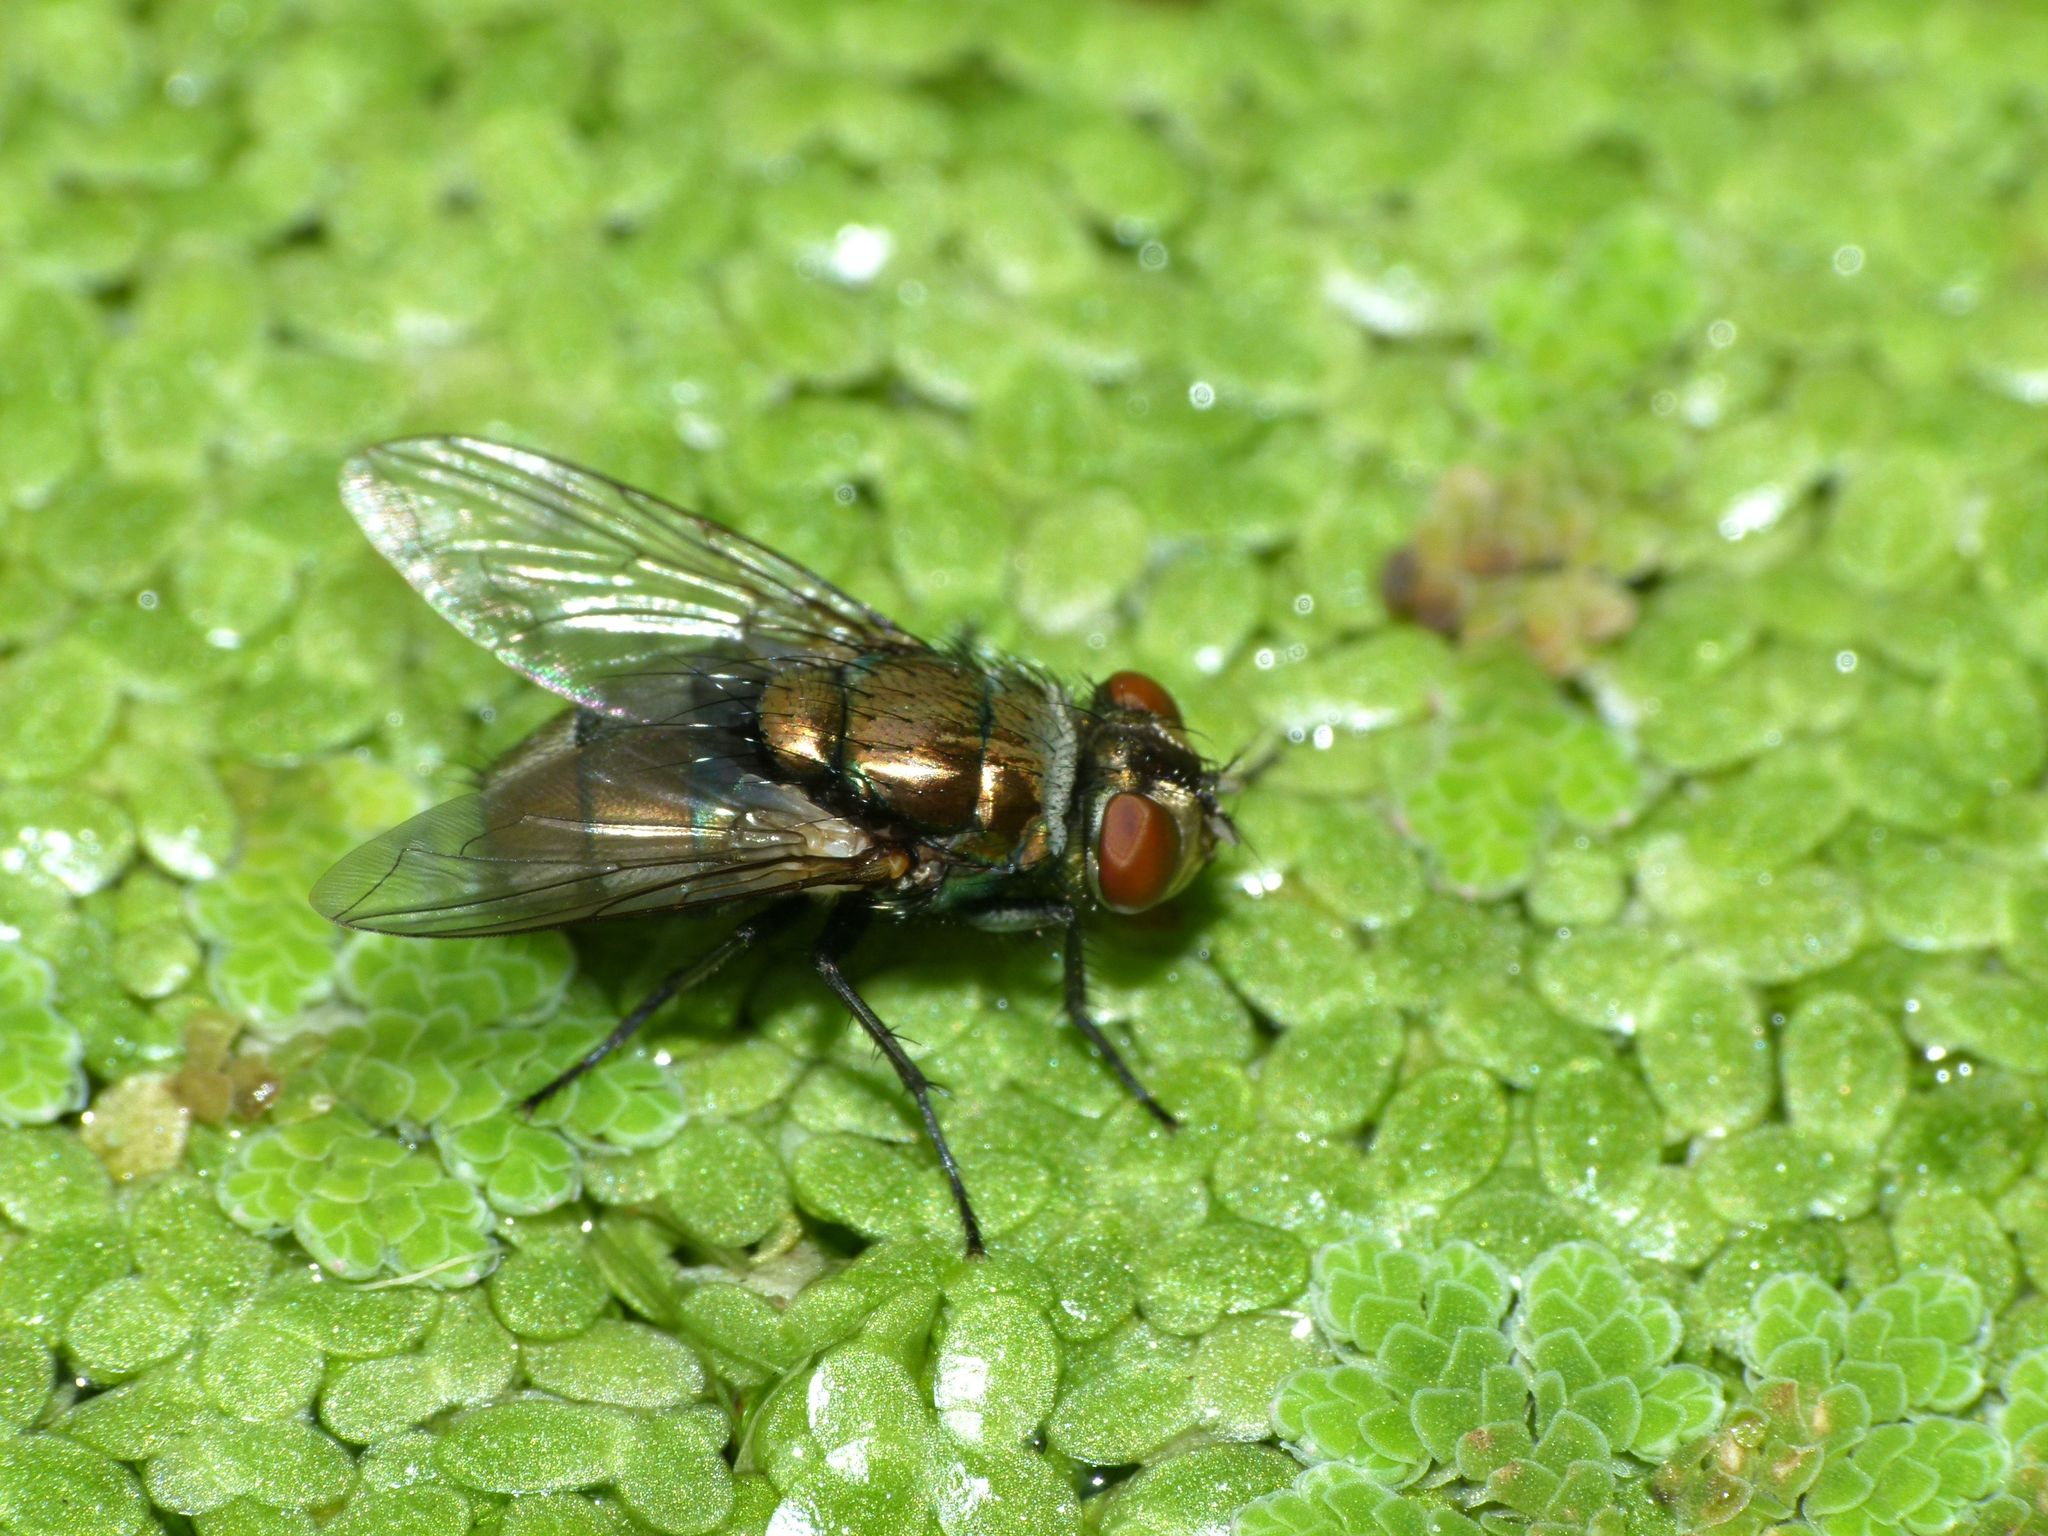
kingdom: Animalia
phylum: Arthropoda
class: Insecta
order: Diptera
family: Calliphoridae
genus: Lucilia
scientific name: Lucilia cuprina
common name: Sheep blow fly
